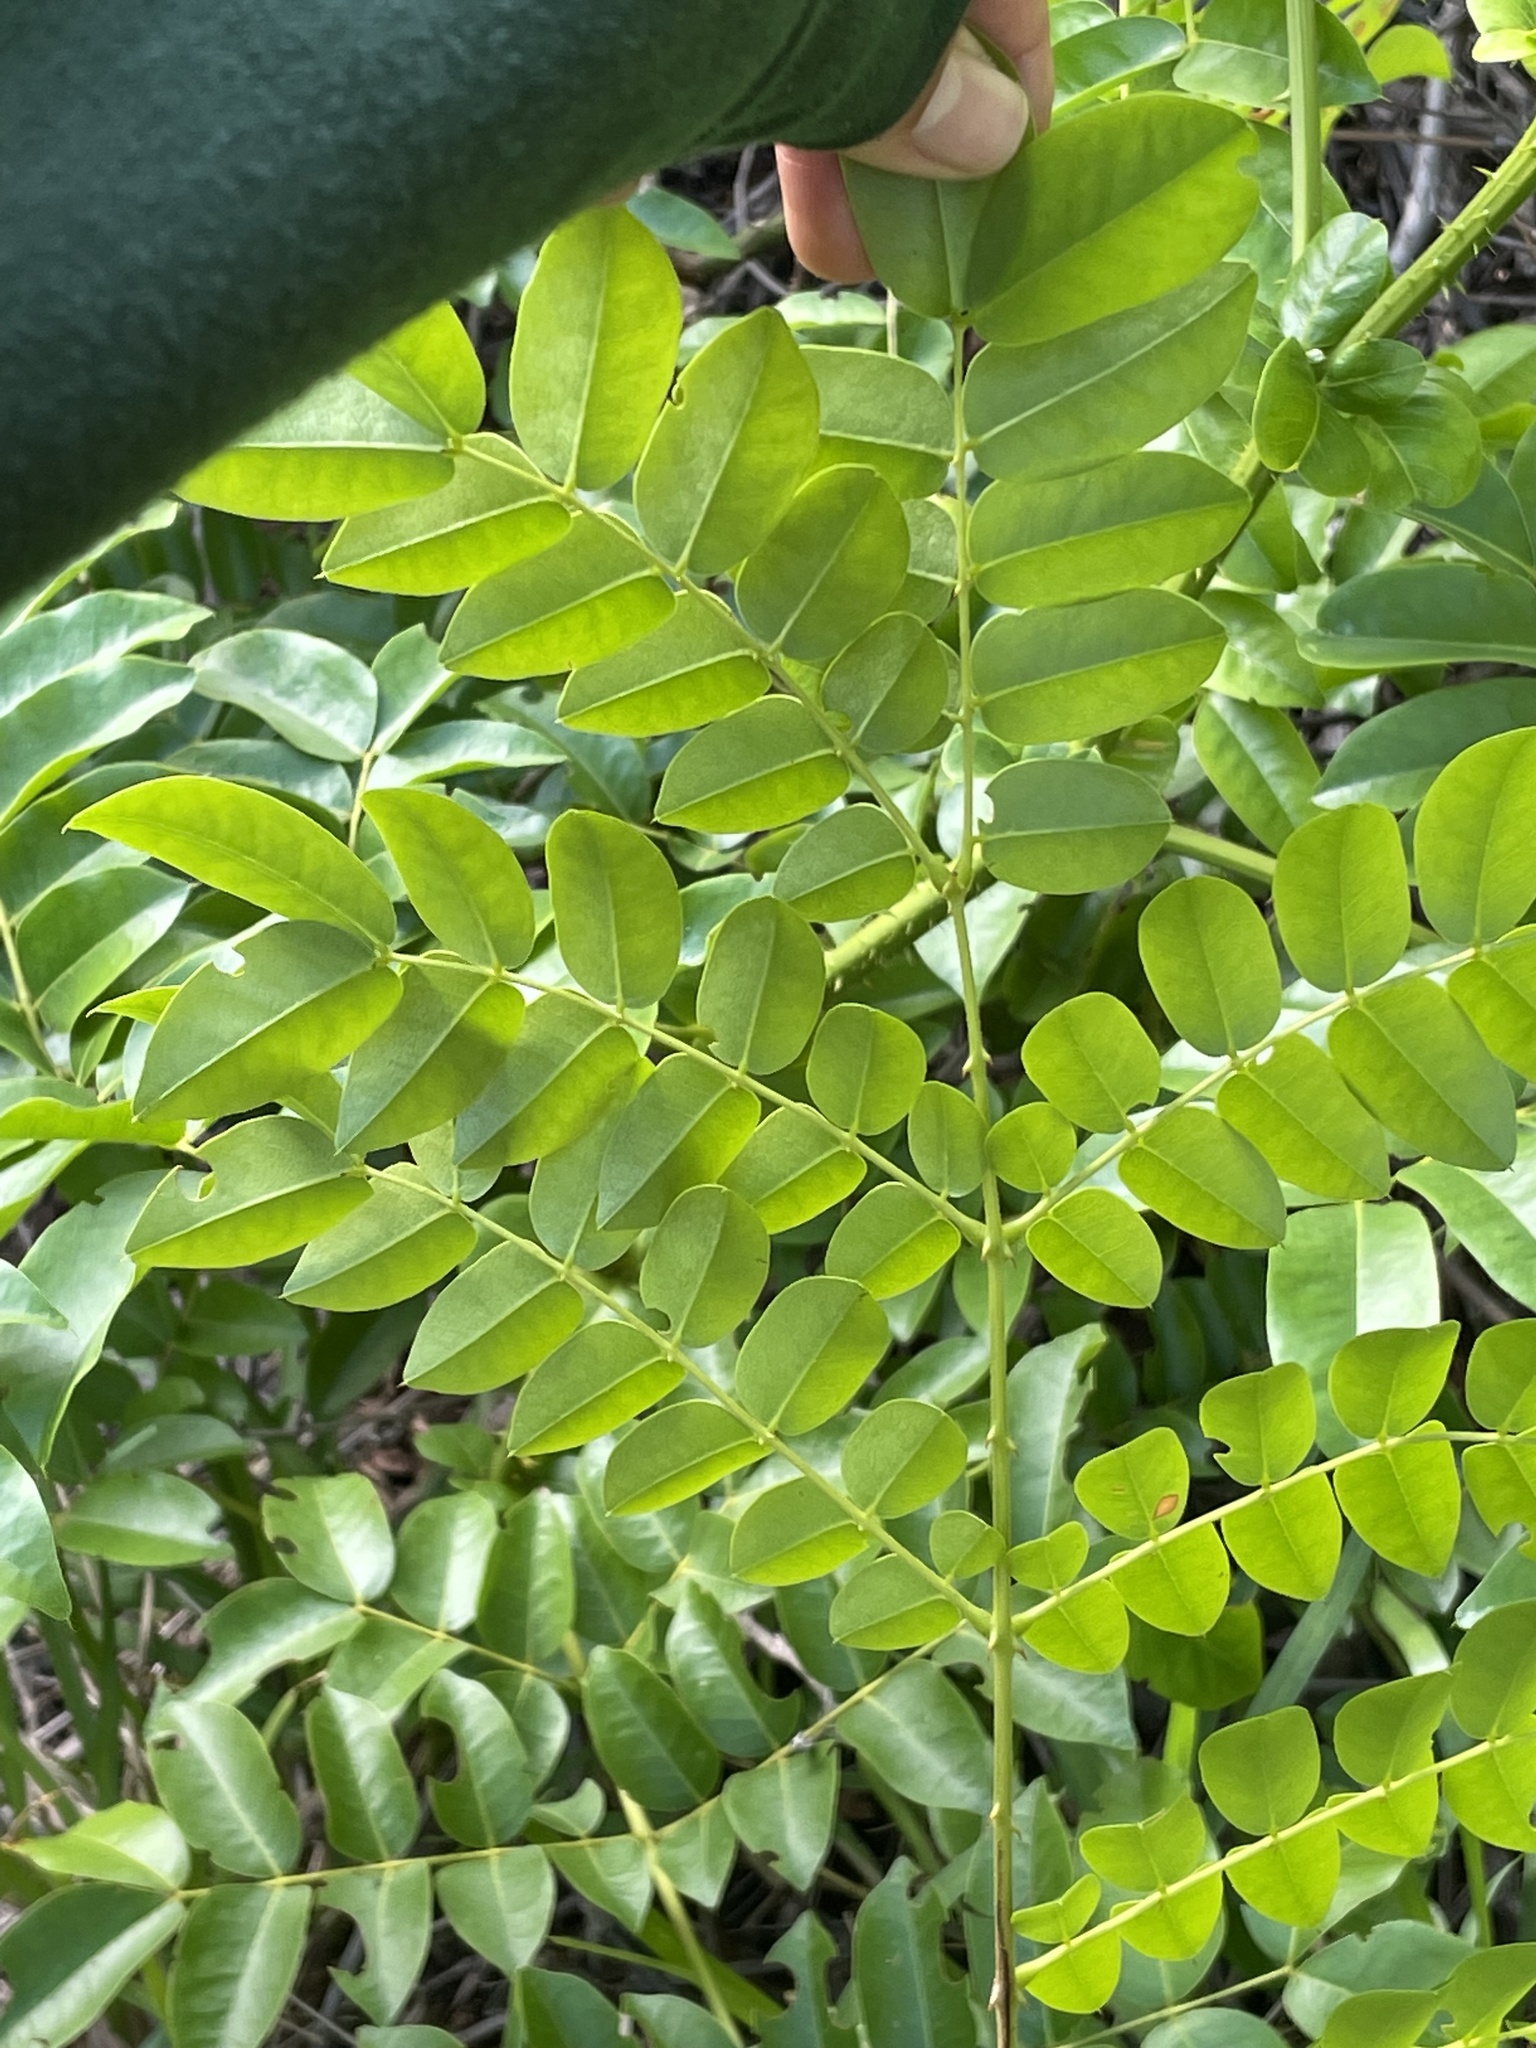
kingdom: Plantae
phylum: Tracheophyta
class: Magnoliopsida
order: Fabales
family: Fabaceae
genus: Guilandina
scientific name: Guilandina bonduc
